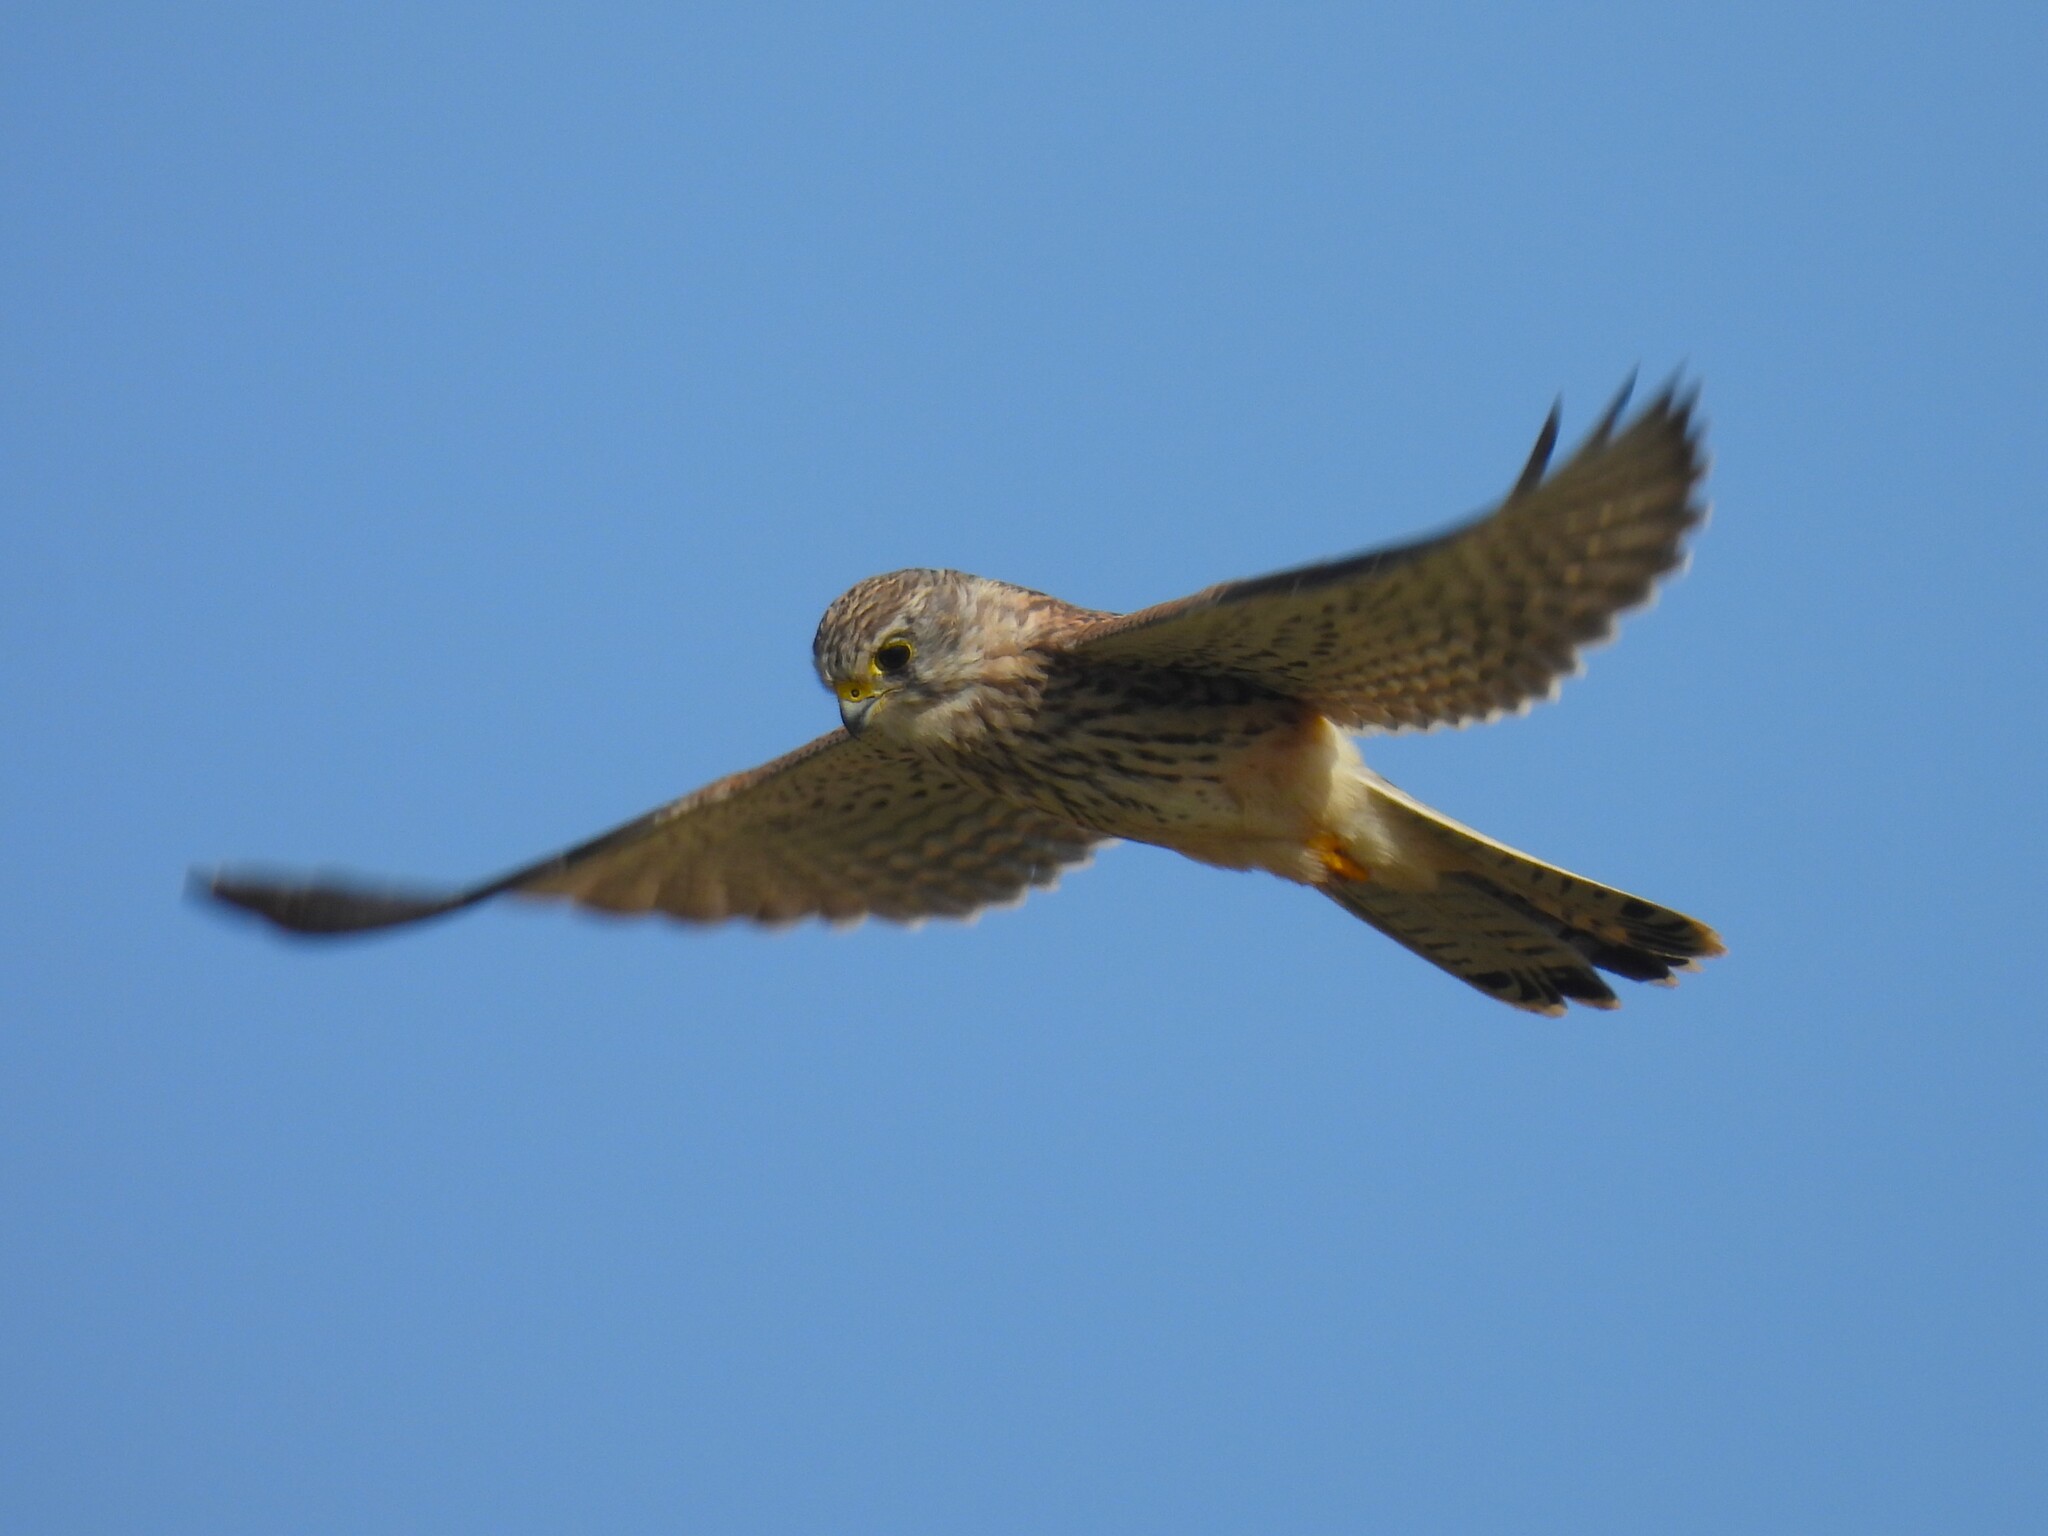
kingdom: Animalia
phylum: Chordata
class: Aves
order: Falconiformes
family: Falconidae
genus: Falco
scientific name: Falco tinnunculus
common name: Common kestrel
